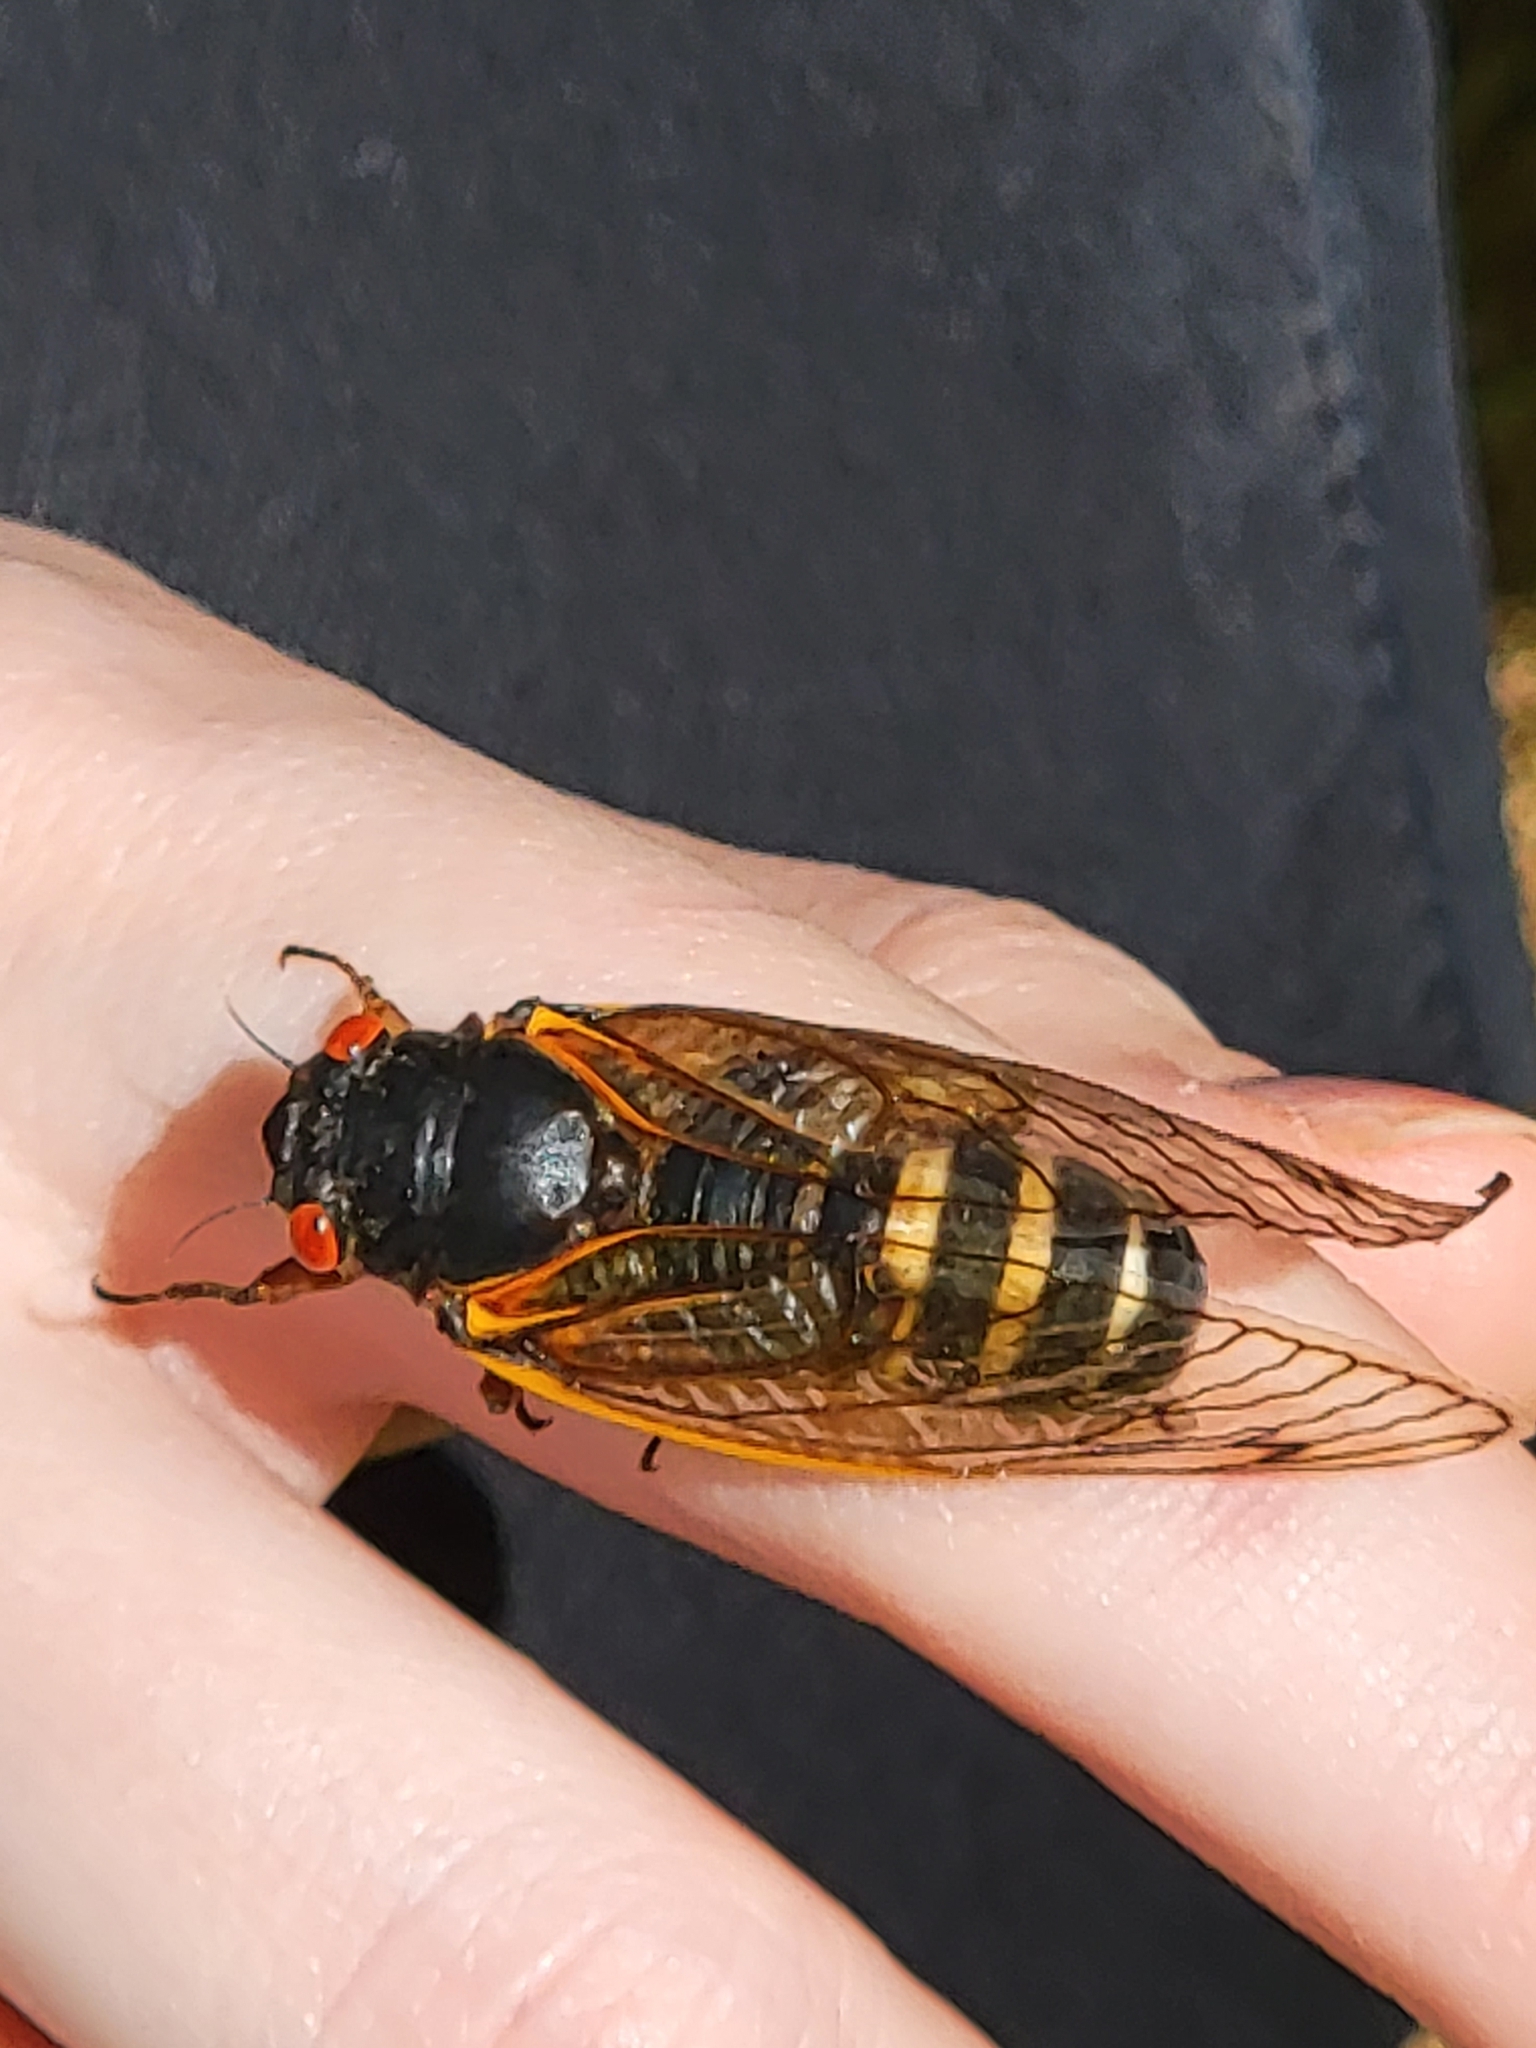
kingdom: Animalia
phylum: Arthropoda
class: Insecta
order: Hemiptera
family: Cicadidae
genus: Magicicada
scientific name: Magicicada septendecim
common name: Periodical cicada
